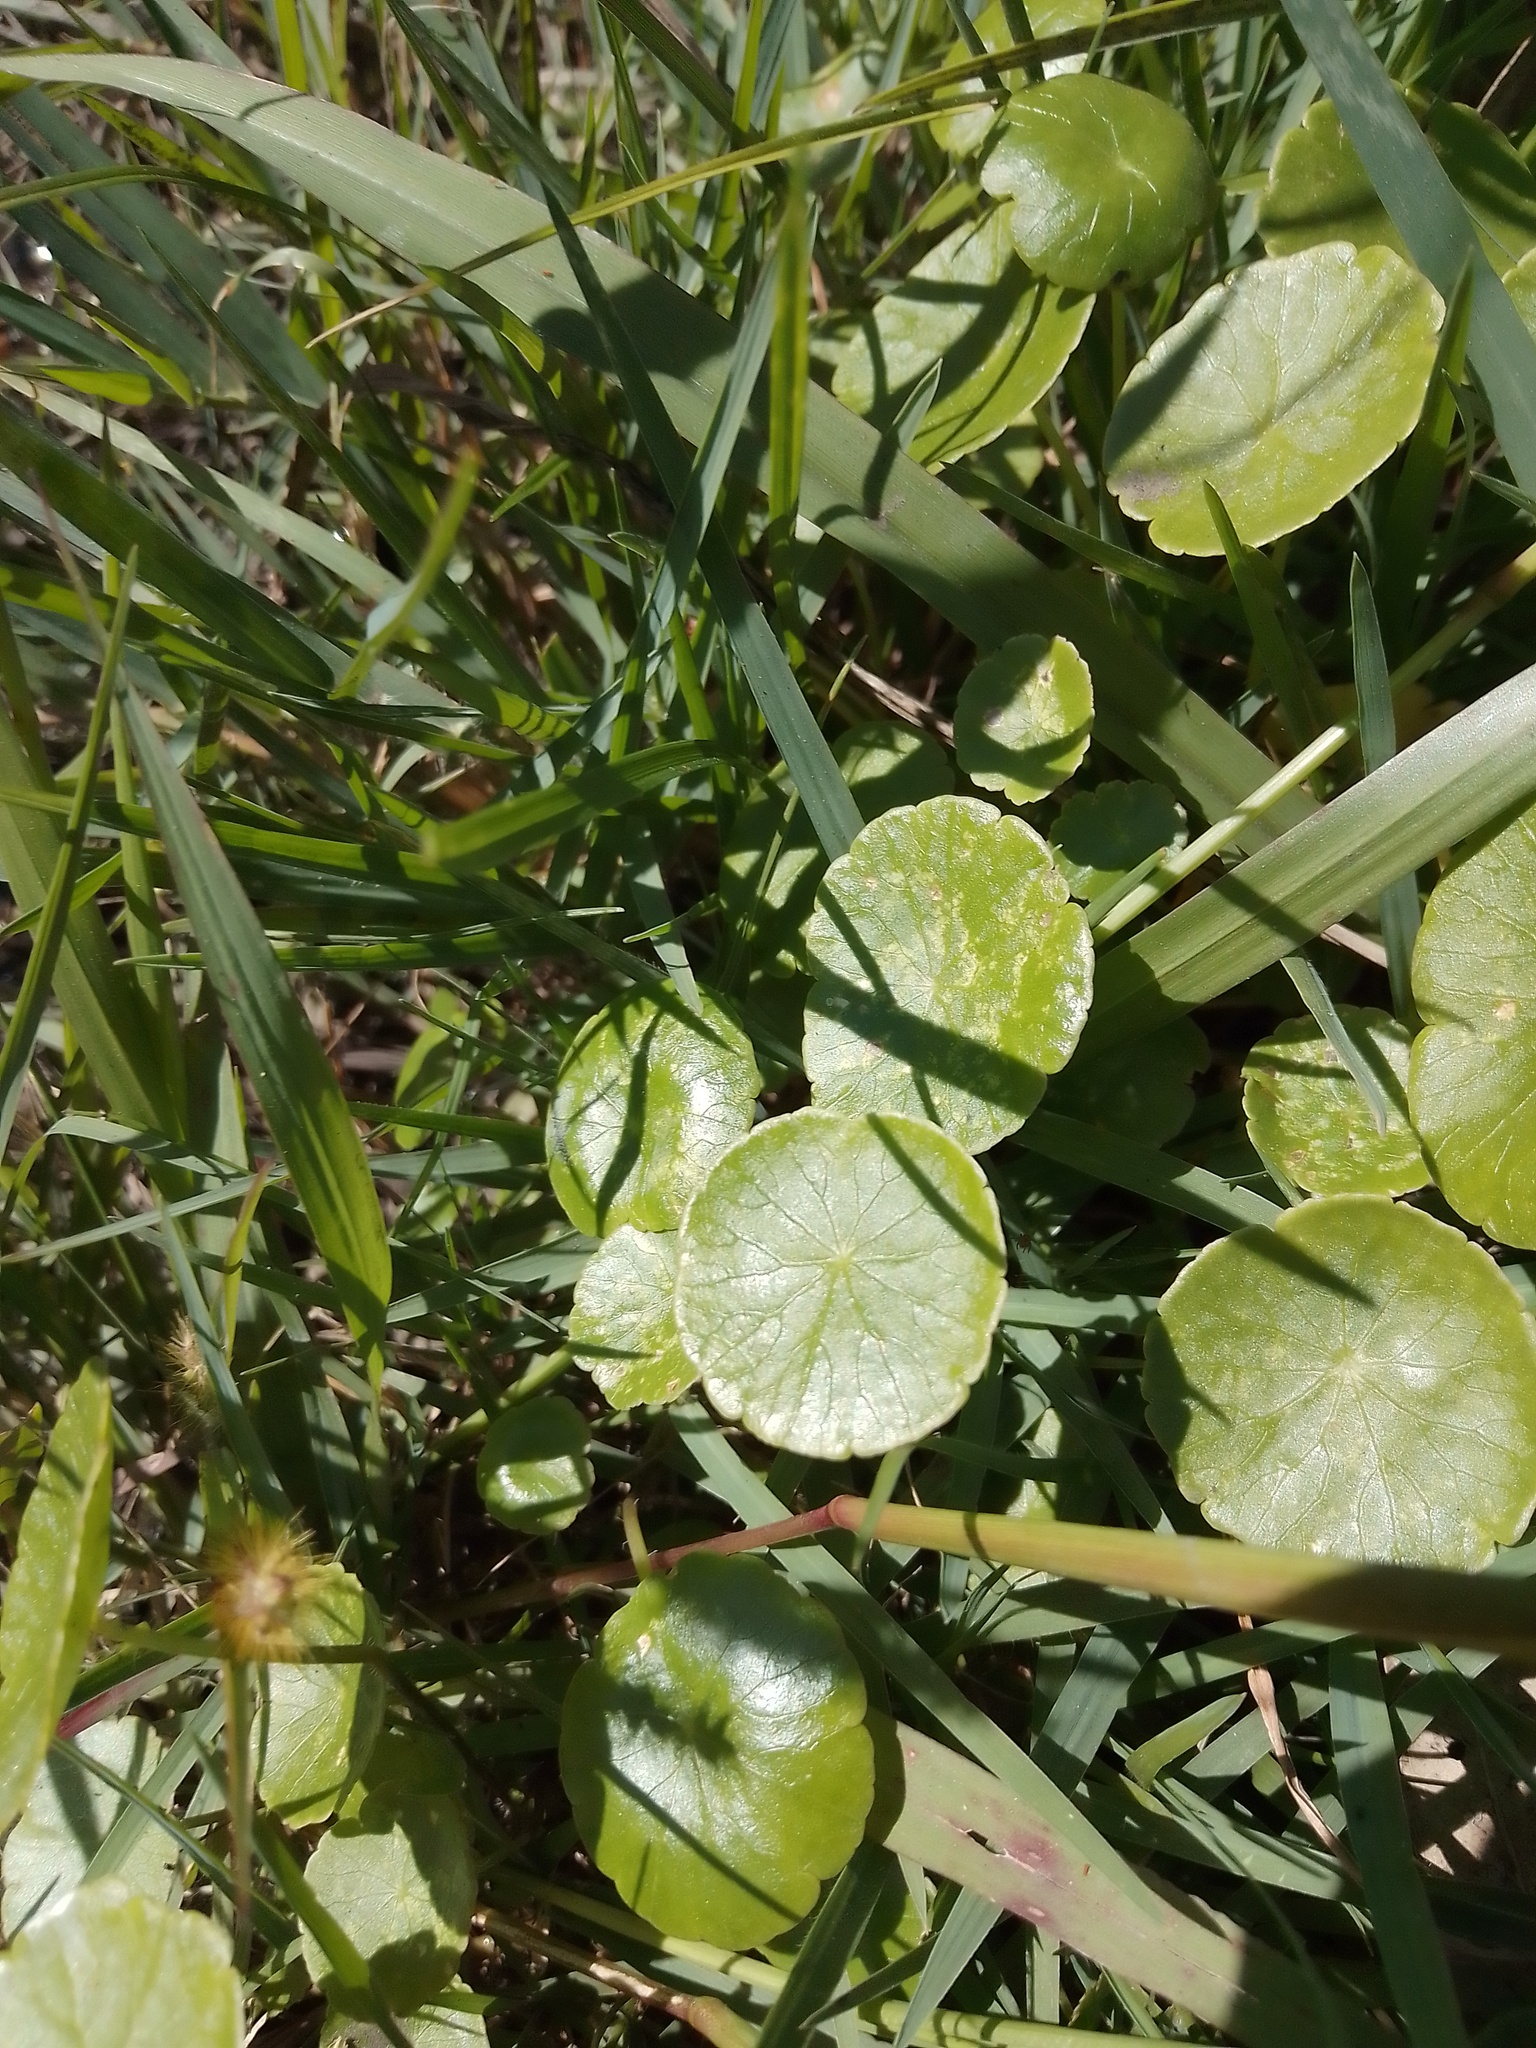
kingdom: Plantae
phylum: Tracheophyta
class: Magnoliopsida
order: Apiales
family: Araliaceae
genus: Hydrocotyle
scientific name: Hydrocotyle bonariensis
